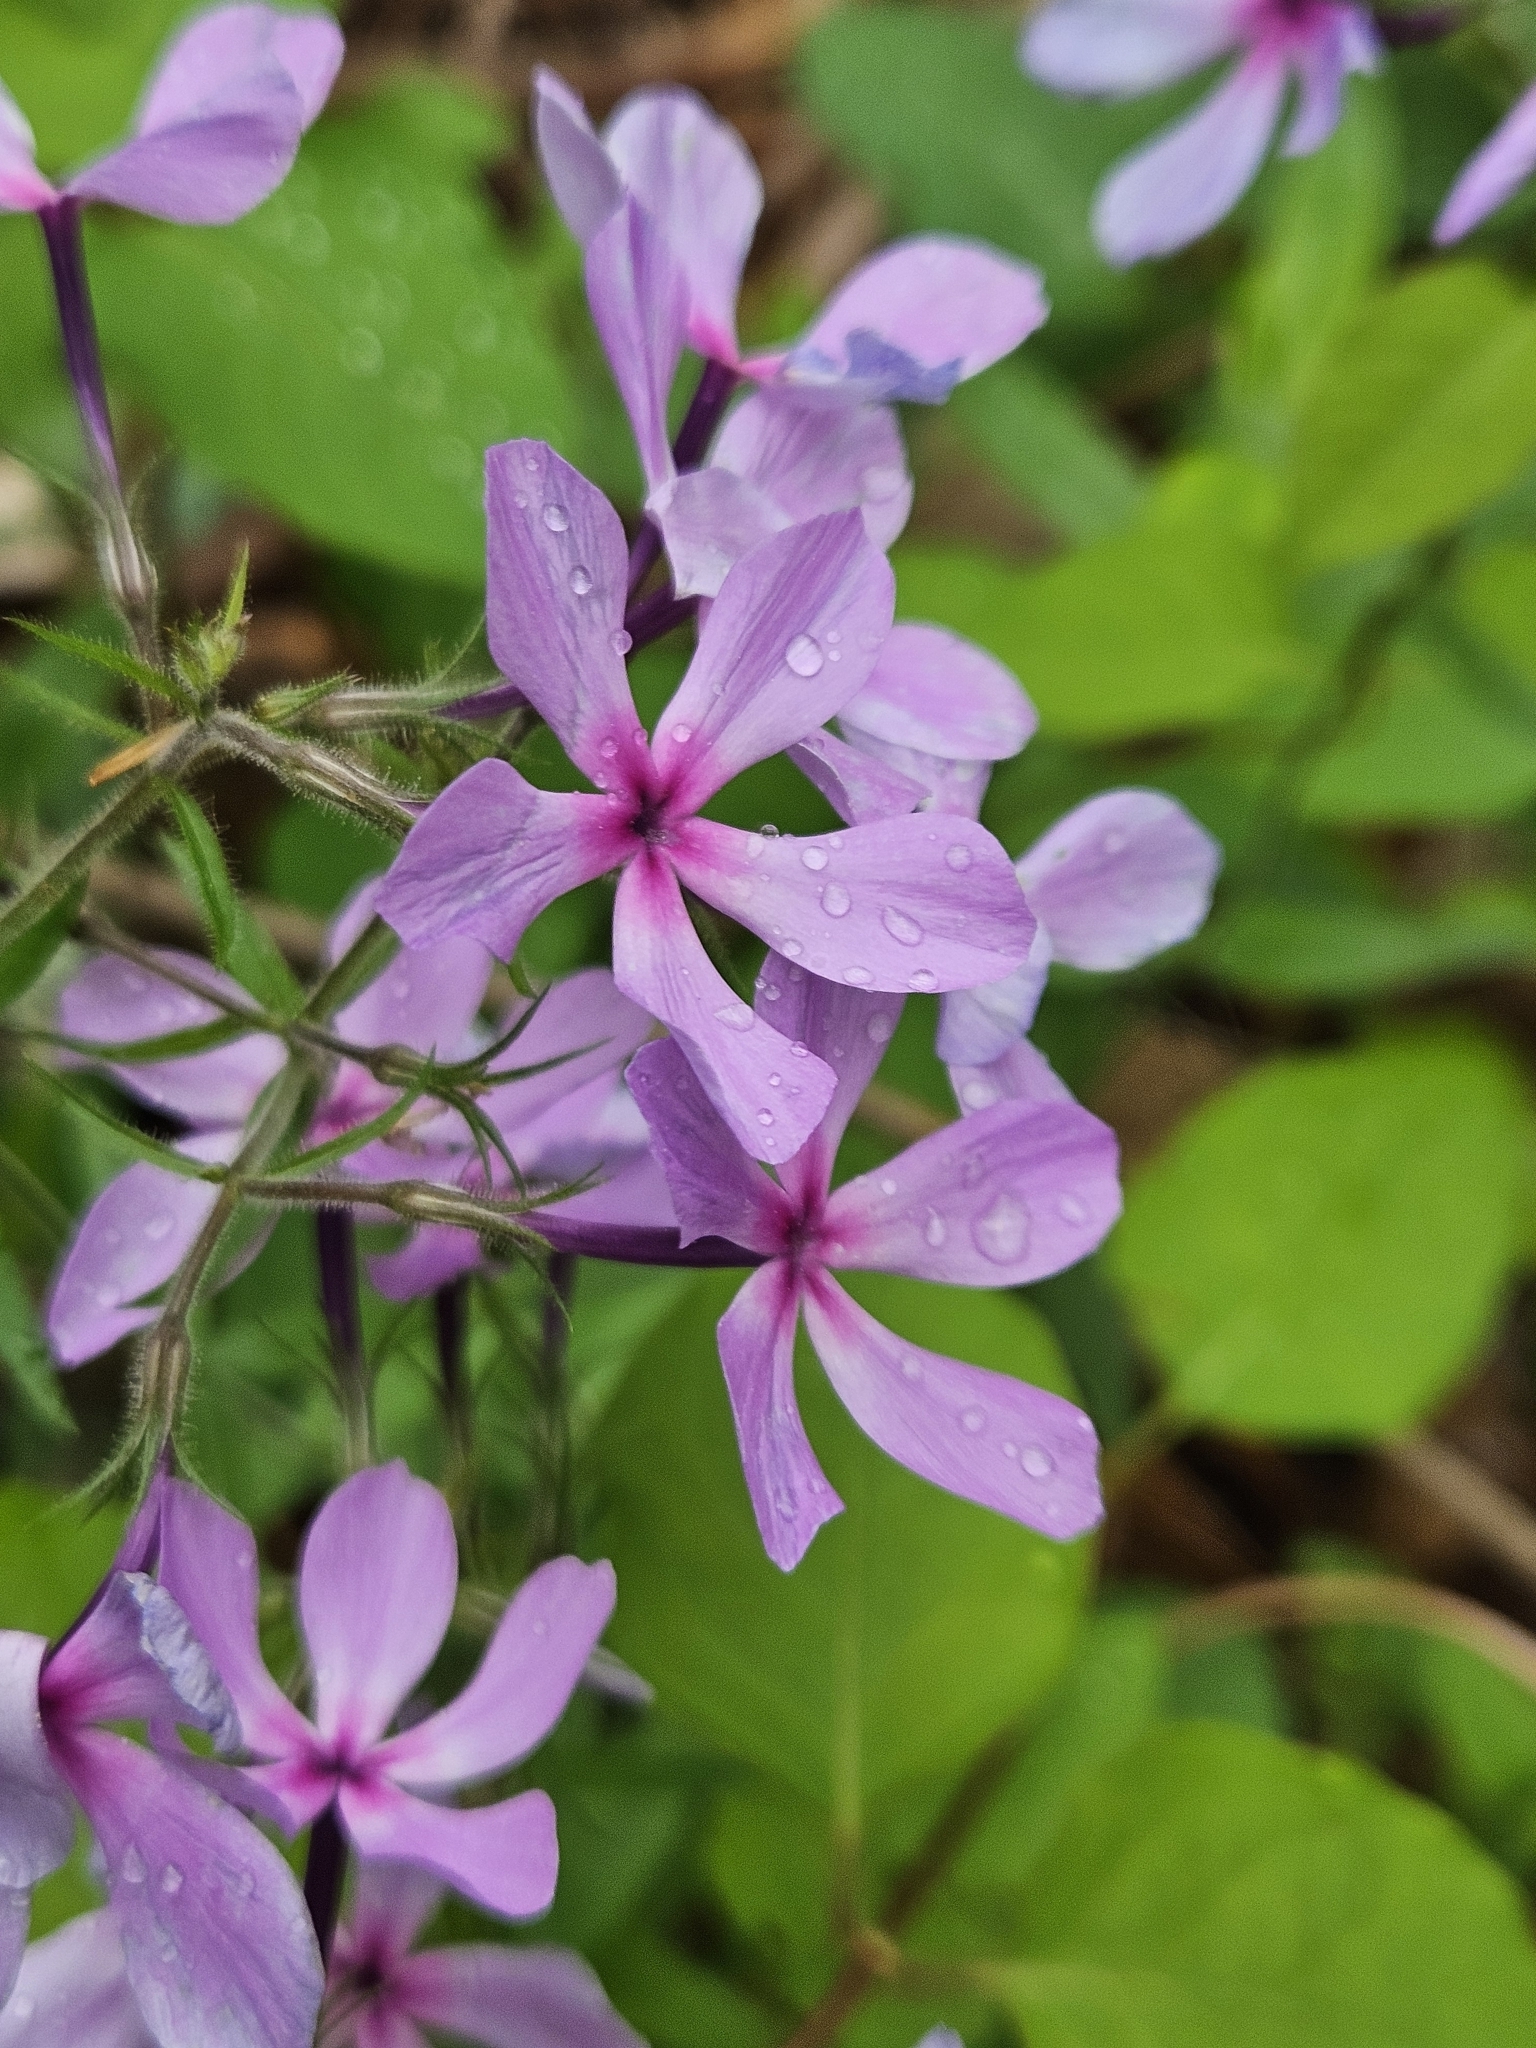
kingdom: Plantae
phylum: Tracheophyta
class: Magnoliopsida
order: Ericales
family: Polemoniaceae
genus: Phlox
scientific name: Phlox divaricata
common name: Blue phlox
